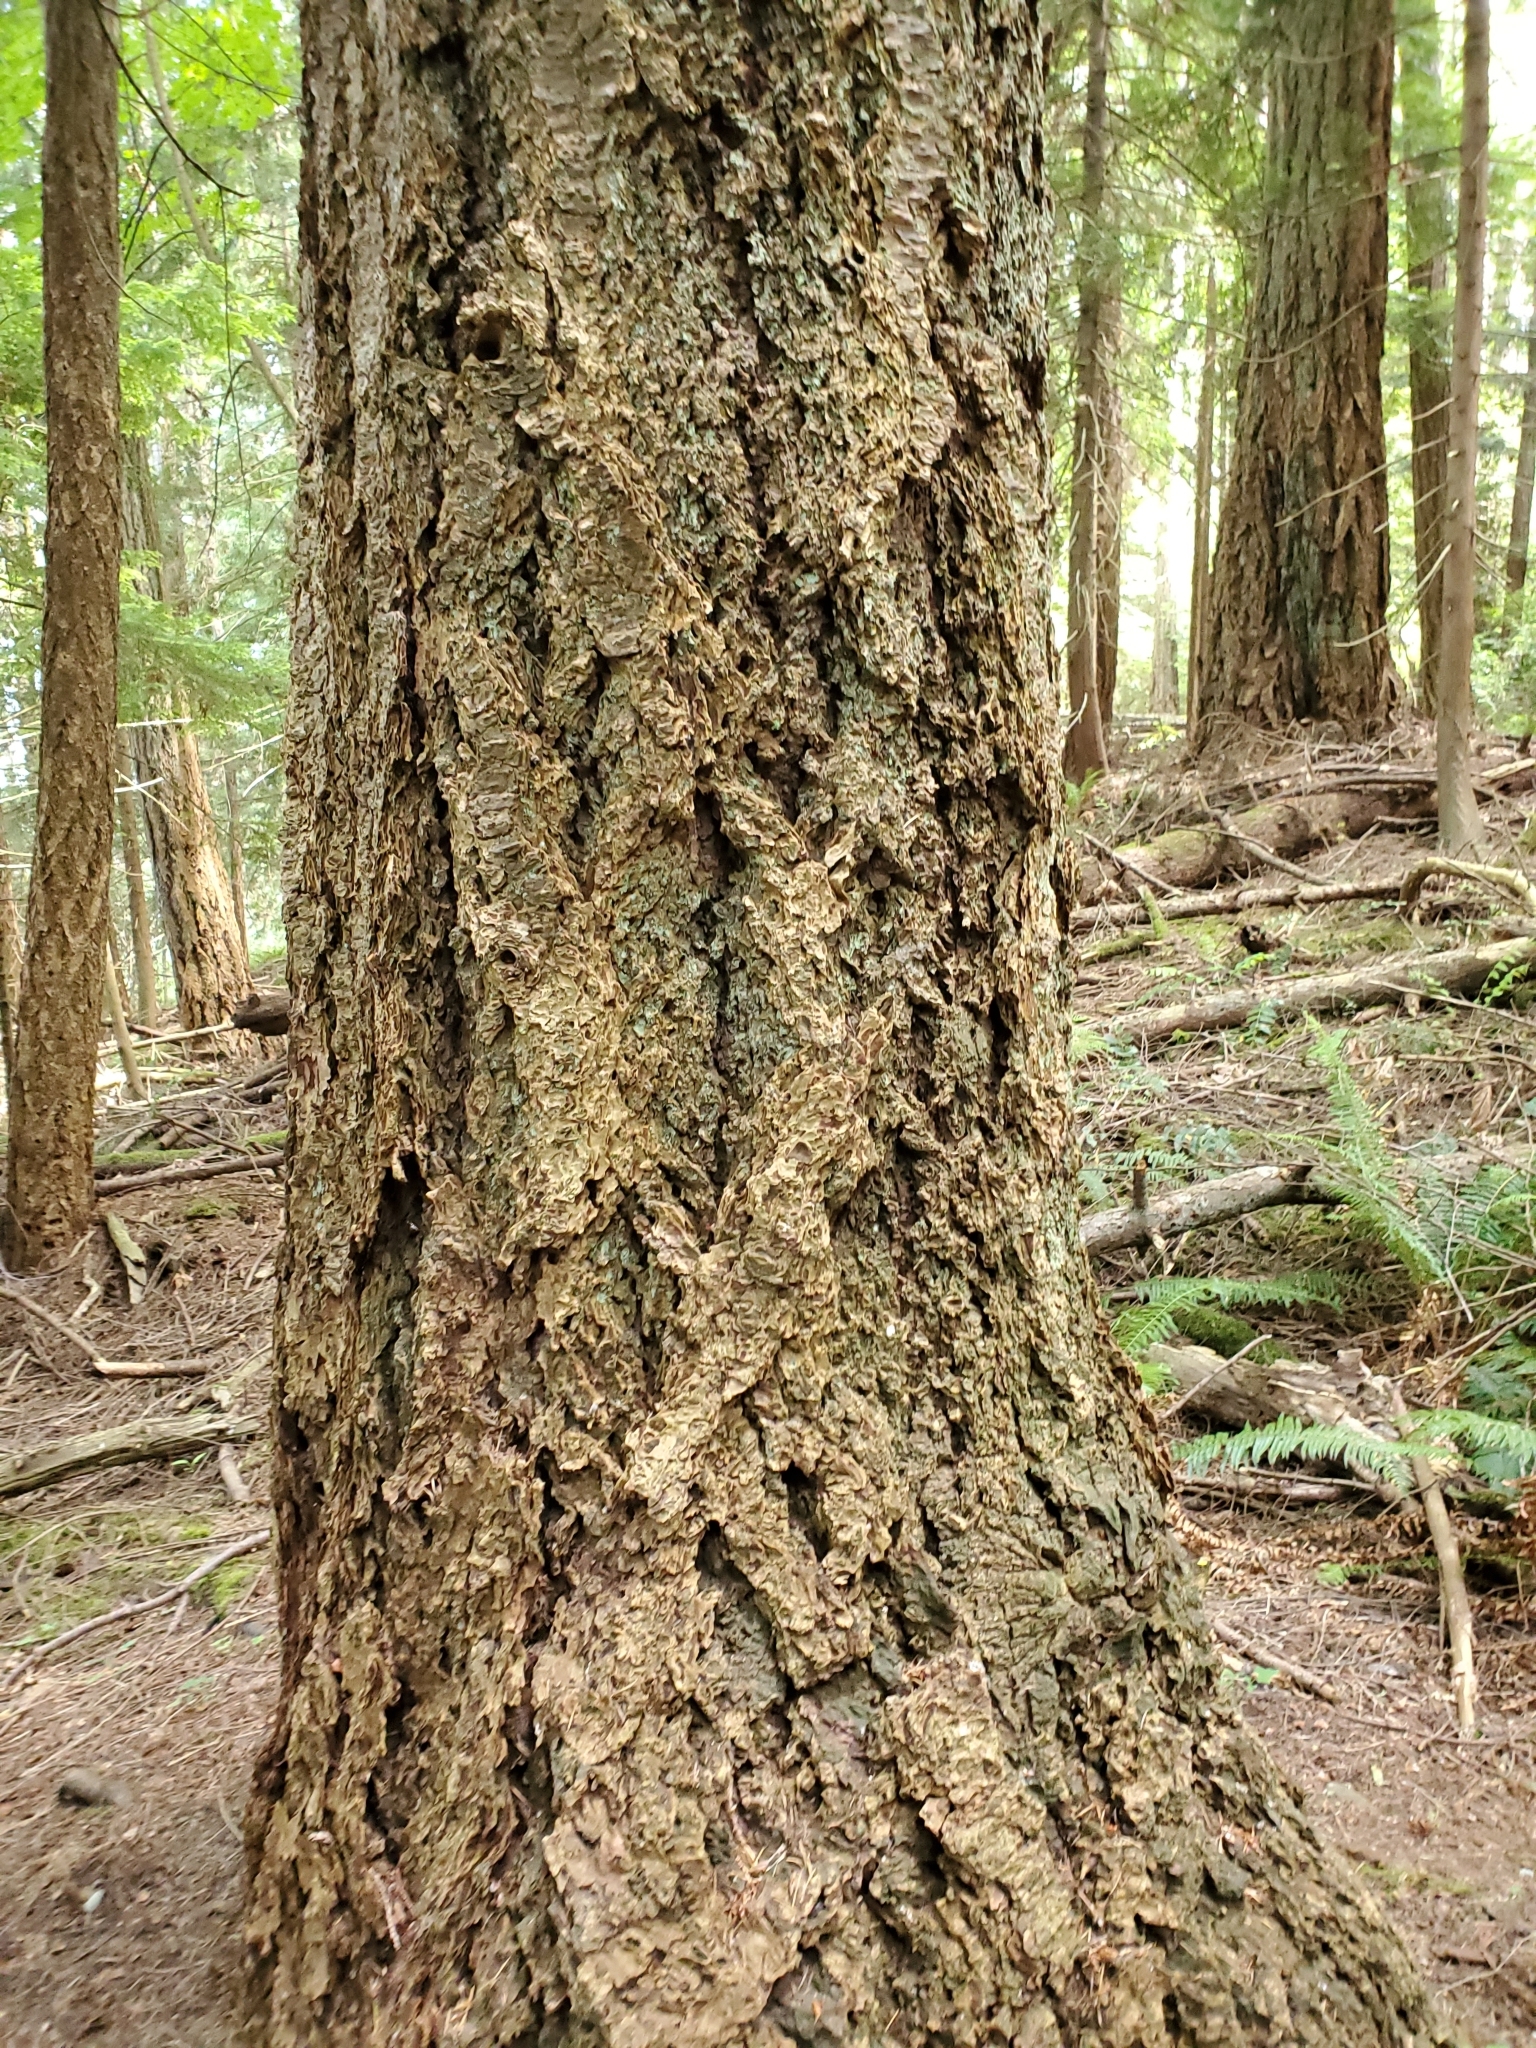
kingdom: Plantae
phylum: Tracheophyta
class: Pinopsida
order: Pinales
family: Pinaceae
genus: Pseudotsuga
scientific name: Pseudotsuga menziesii
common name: Douglas fir
